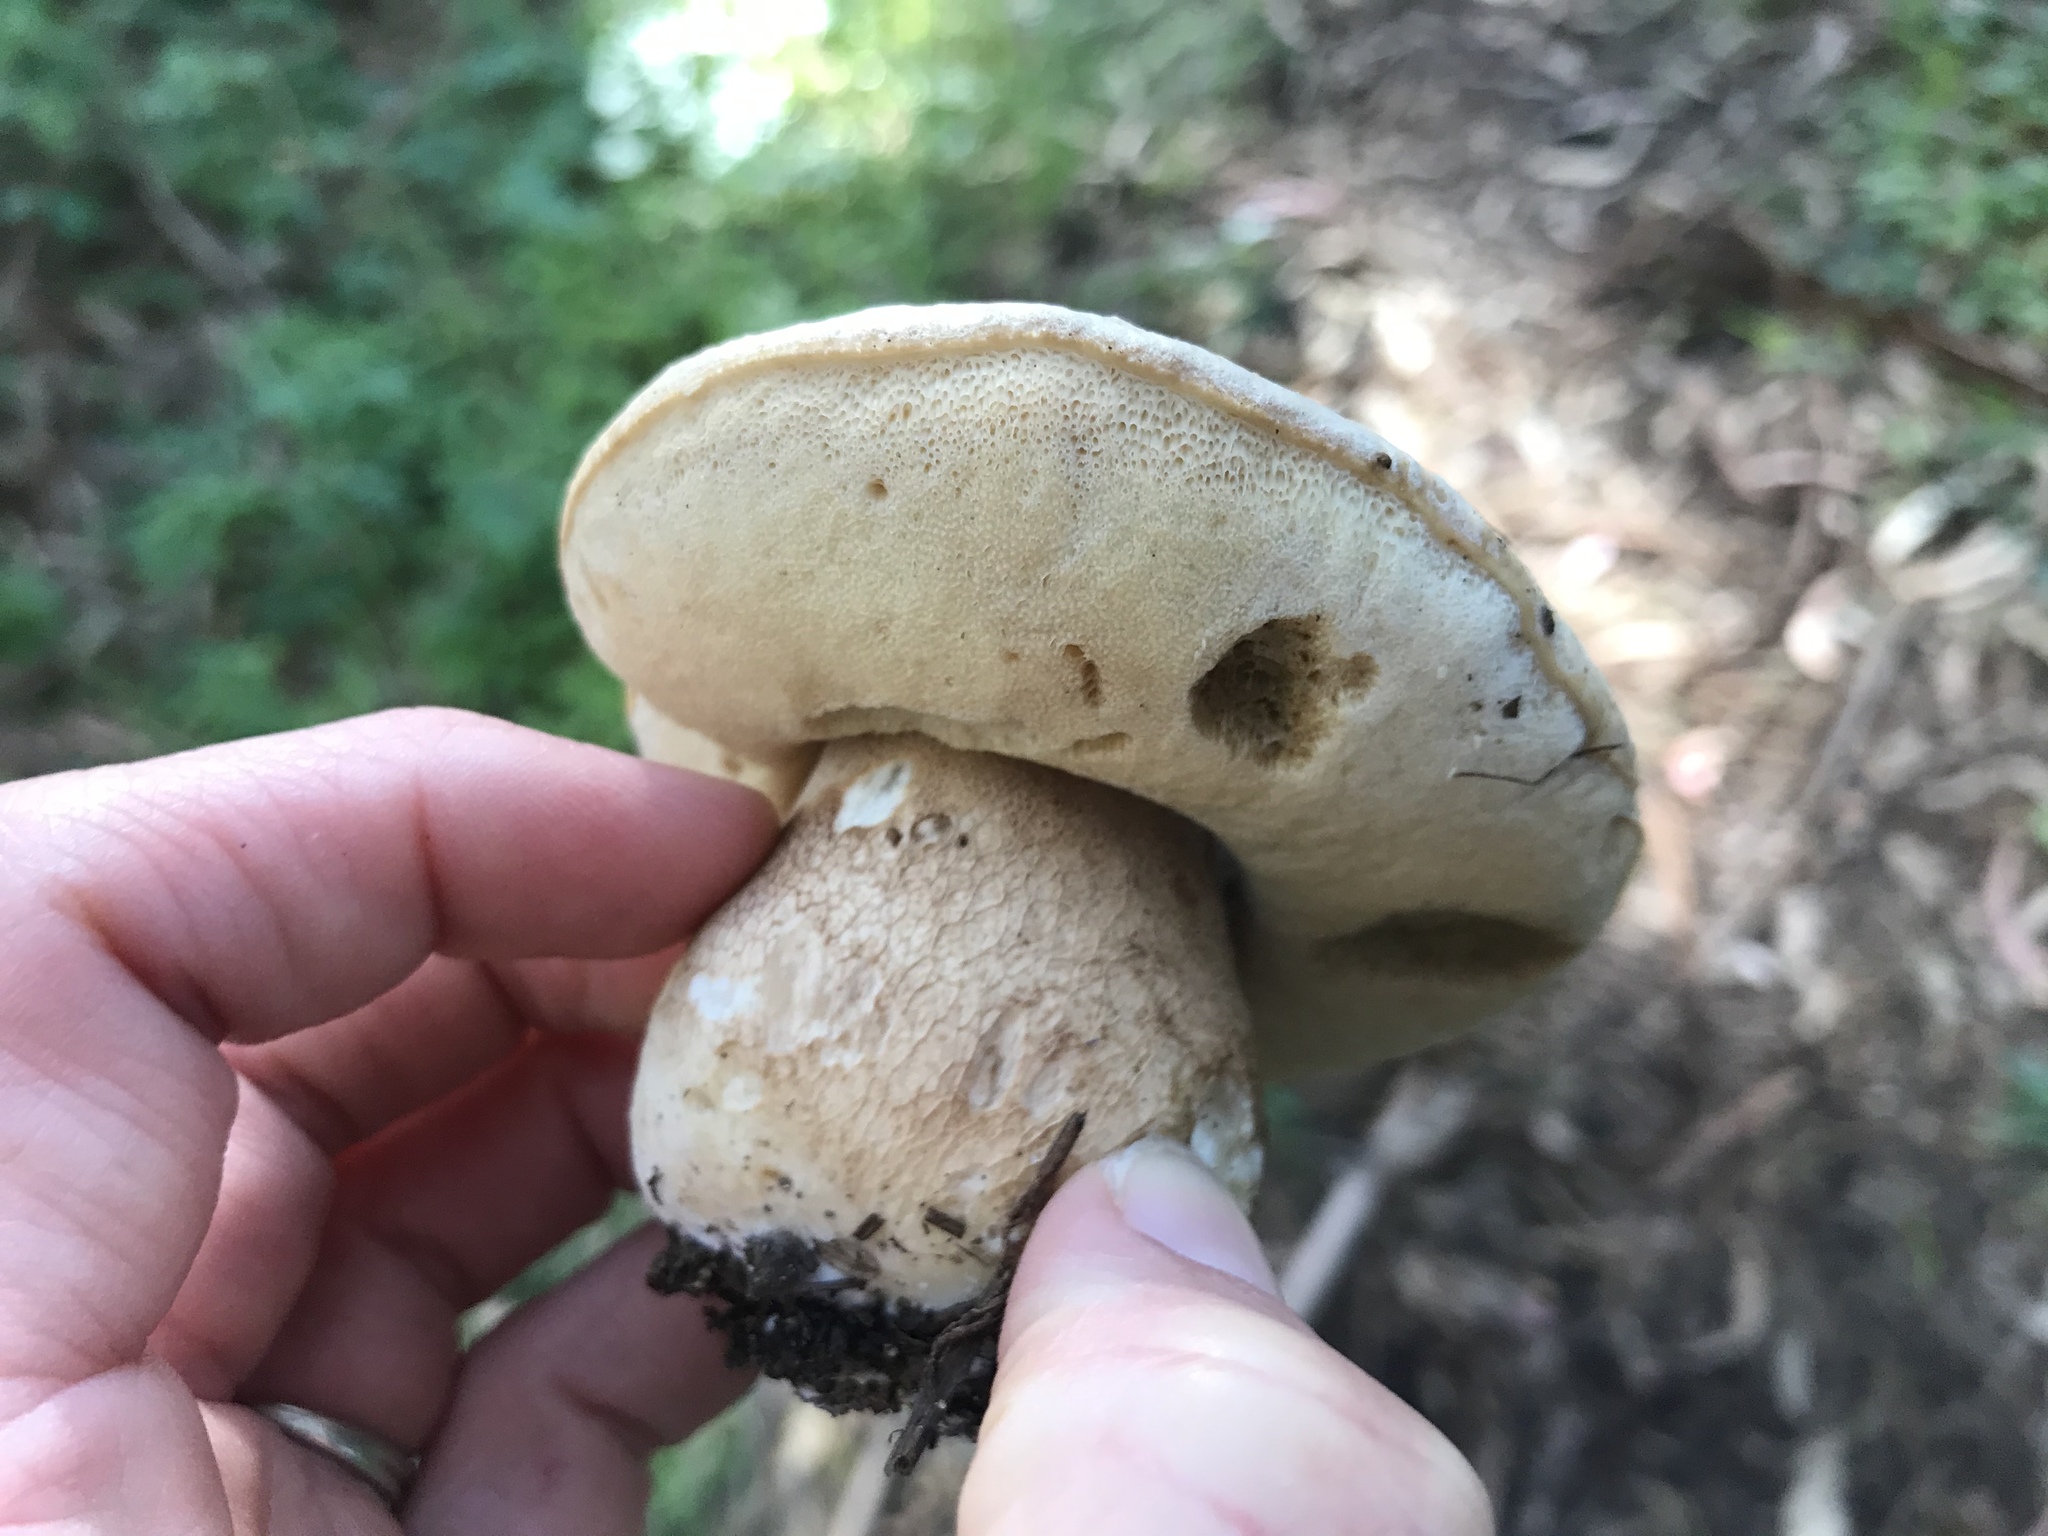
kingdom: Fungi
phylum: Basidiomycota
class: Agaricomycetes
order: Boletales
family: Boletaceae
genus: Boletus
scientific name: Boletus barrowsii
